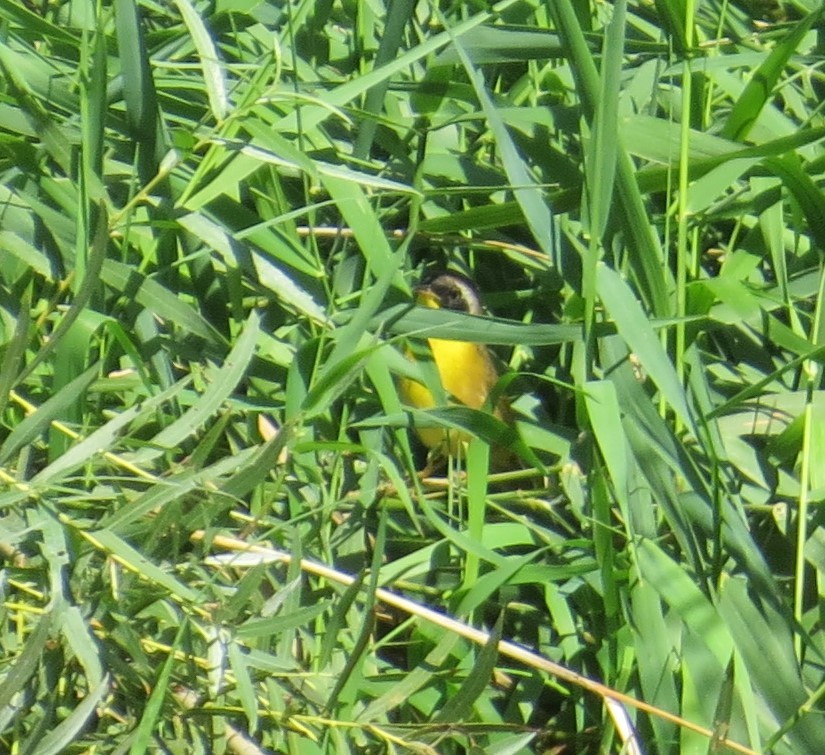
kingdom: Animalia
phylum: Chordata
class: Aves
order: Passeriformes
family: Parulidae
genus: Geothlypis
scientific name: Geothlypis trichas
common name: Common yellowthroat
